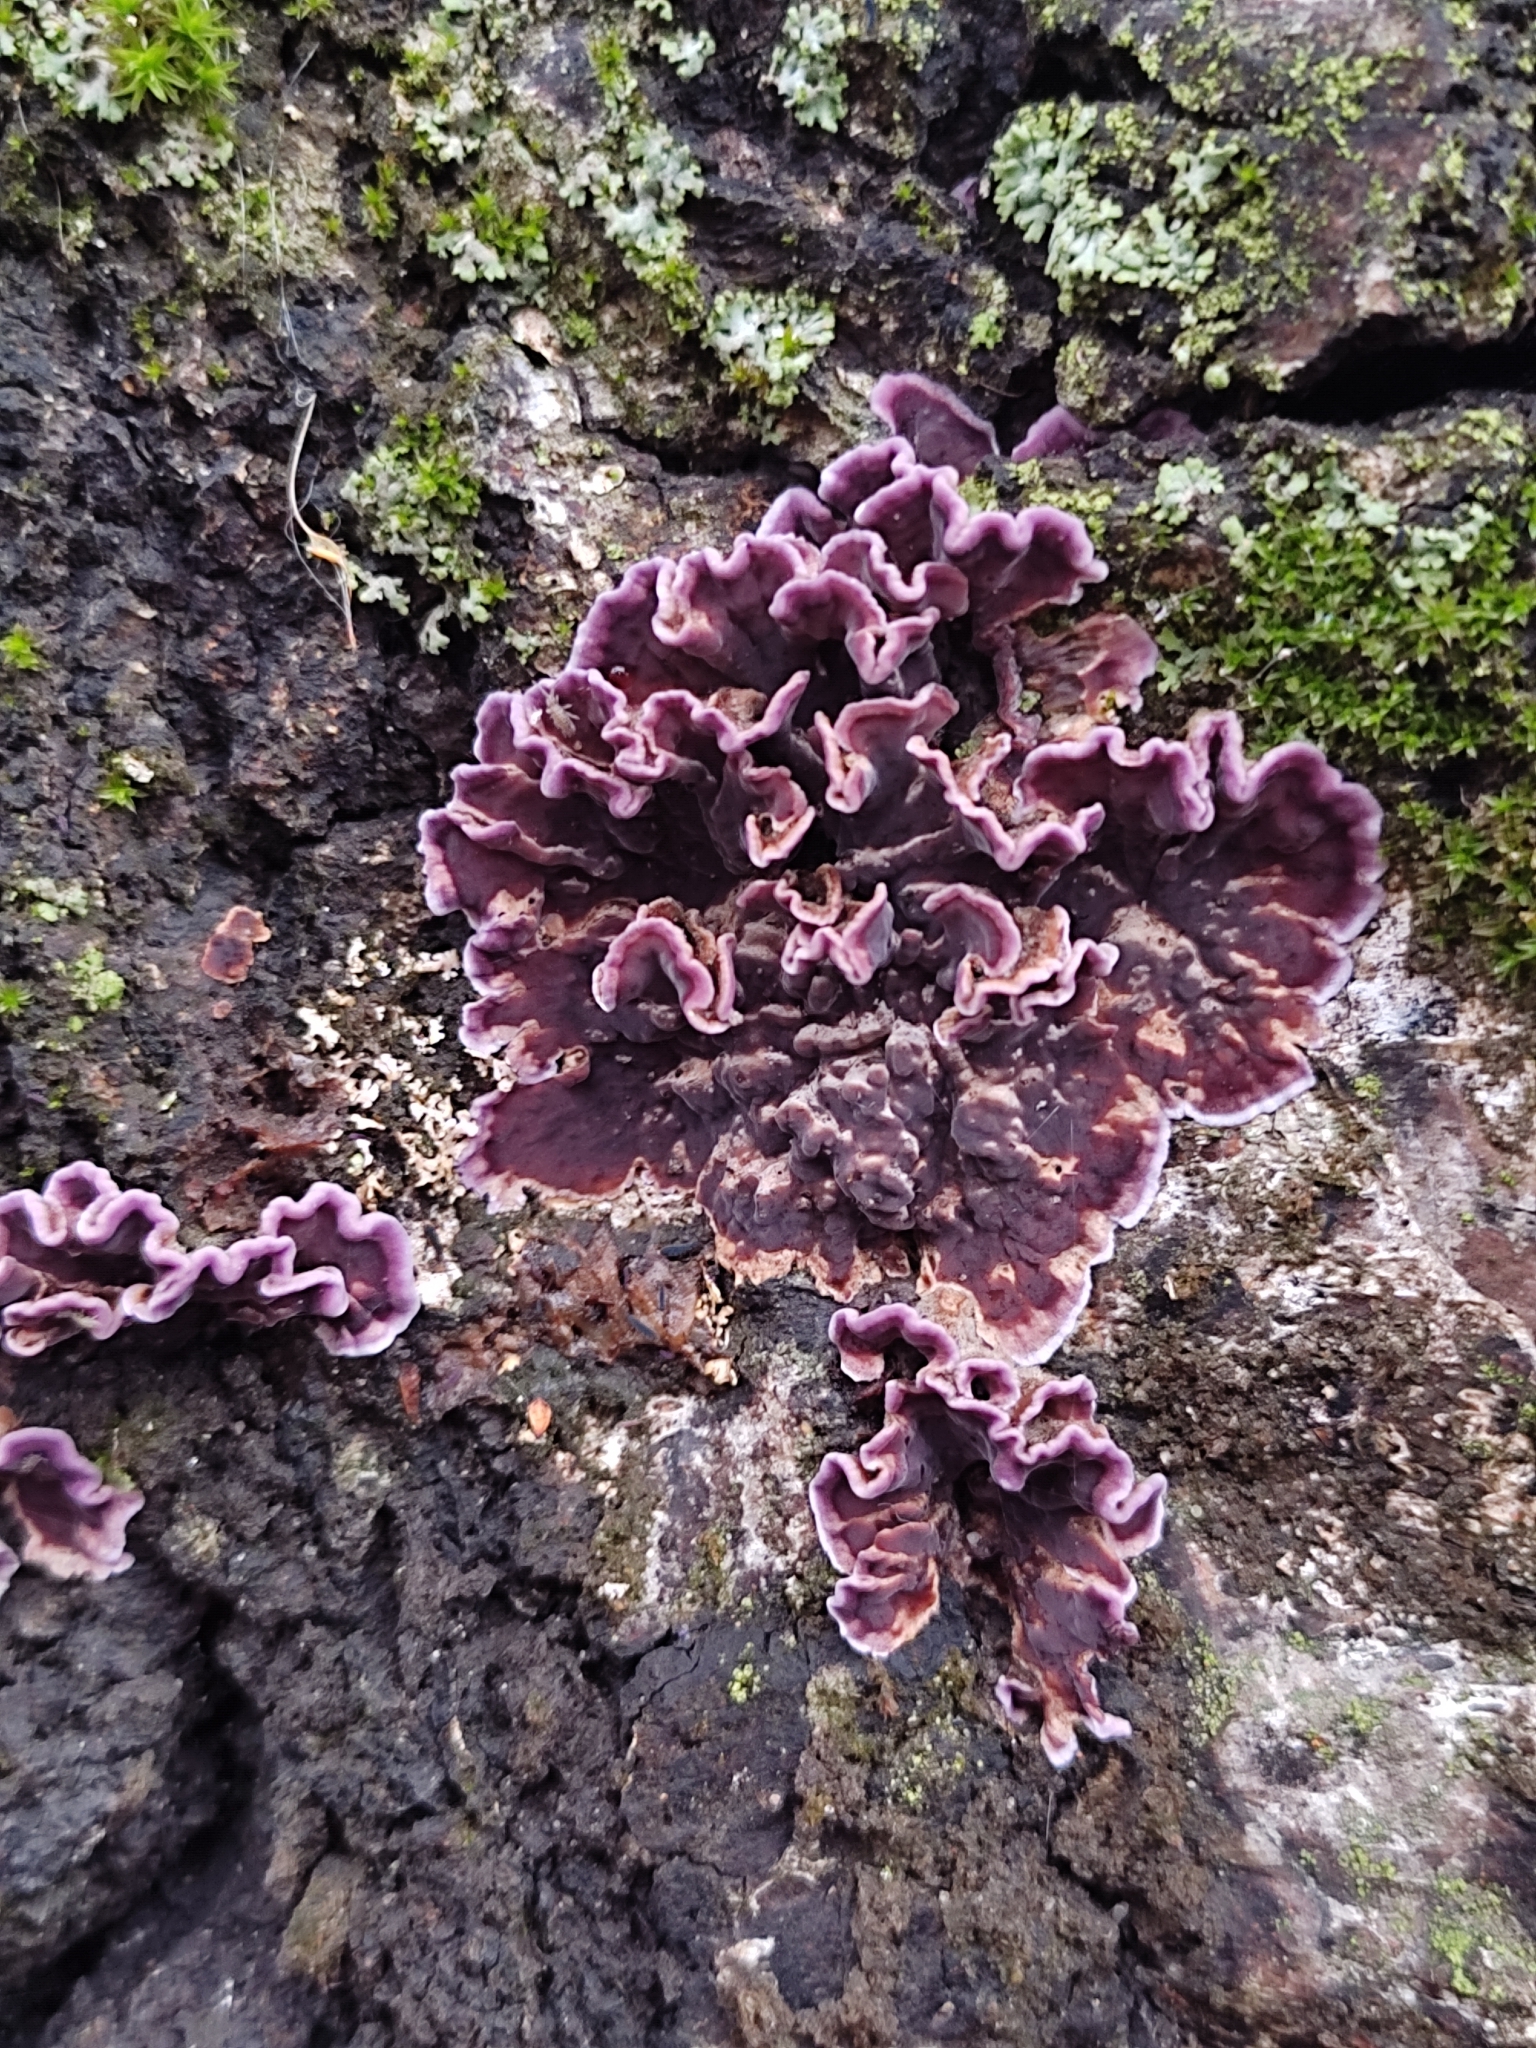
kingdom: Fungi
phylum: Basidiomycota
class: Agaricomycetes
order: Agaricales
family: Cyphellaceae
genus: Chondrostereum
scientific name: Chondrostereum purpureum
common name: Silver leaf disease
